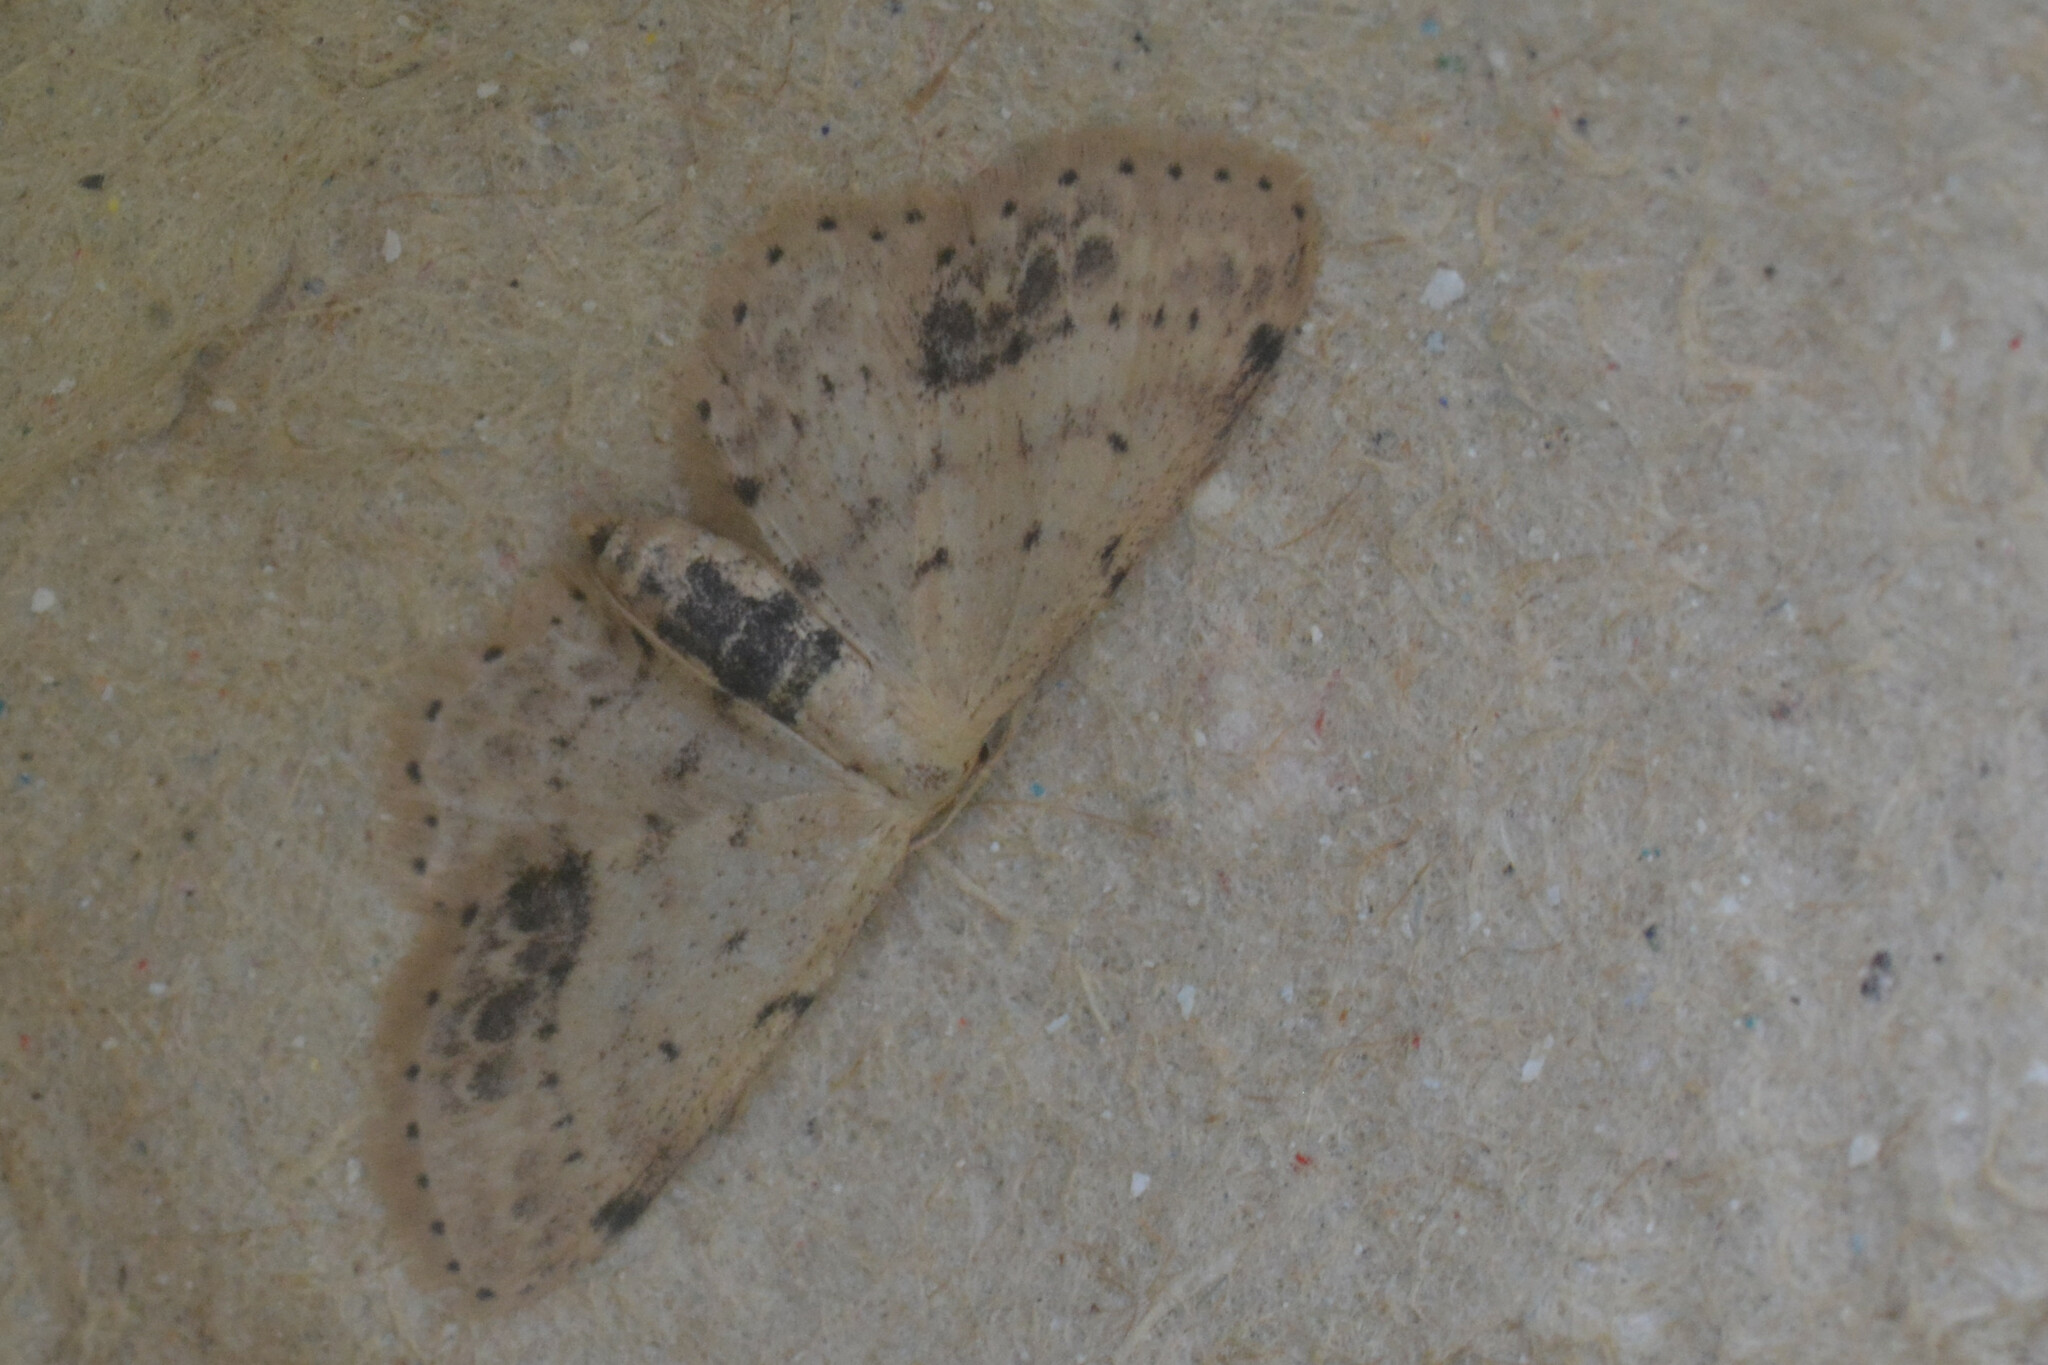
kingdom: Animalia
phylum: Arthropoda
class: Insecta
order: Lepidoptera
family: Geometridae
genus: Idaea
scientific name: Idaea dimidiata
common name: Single-dotted wave
